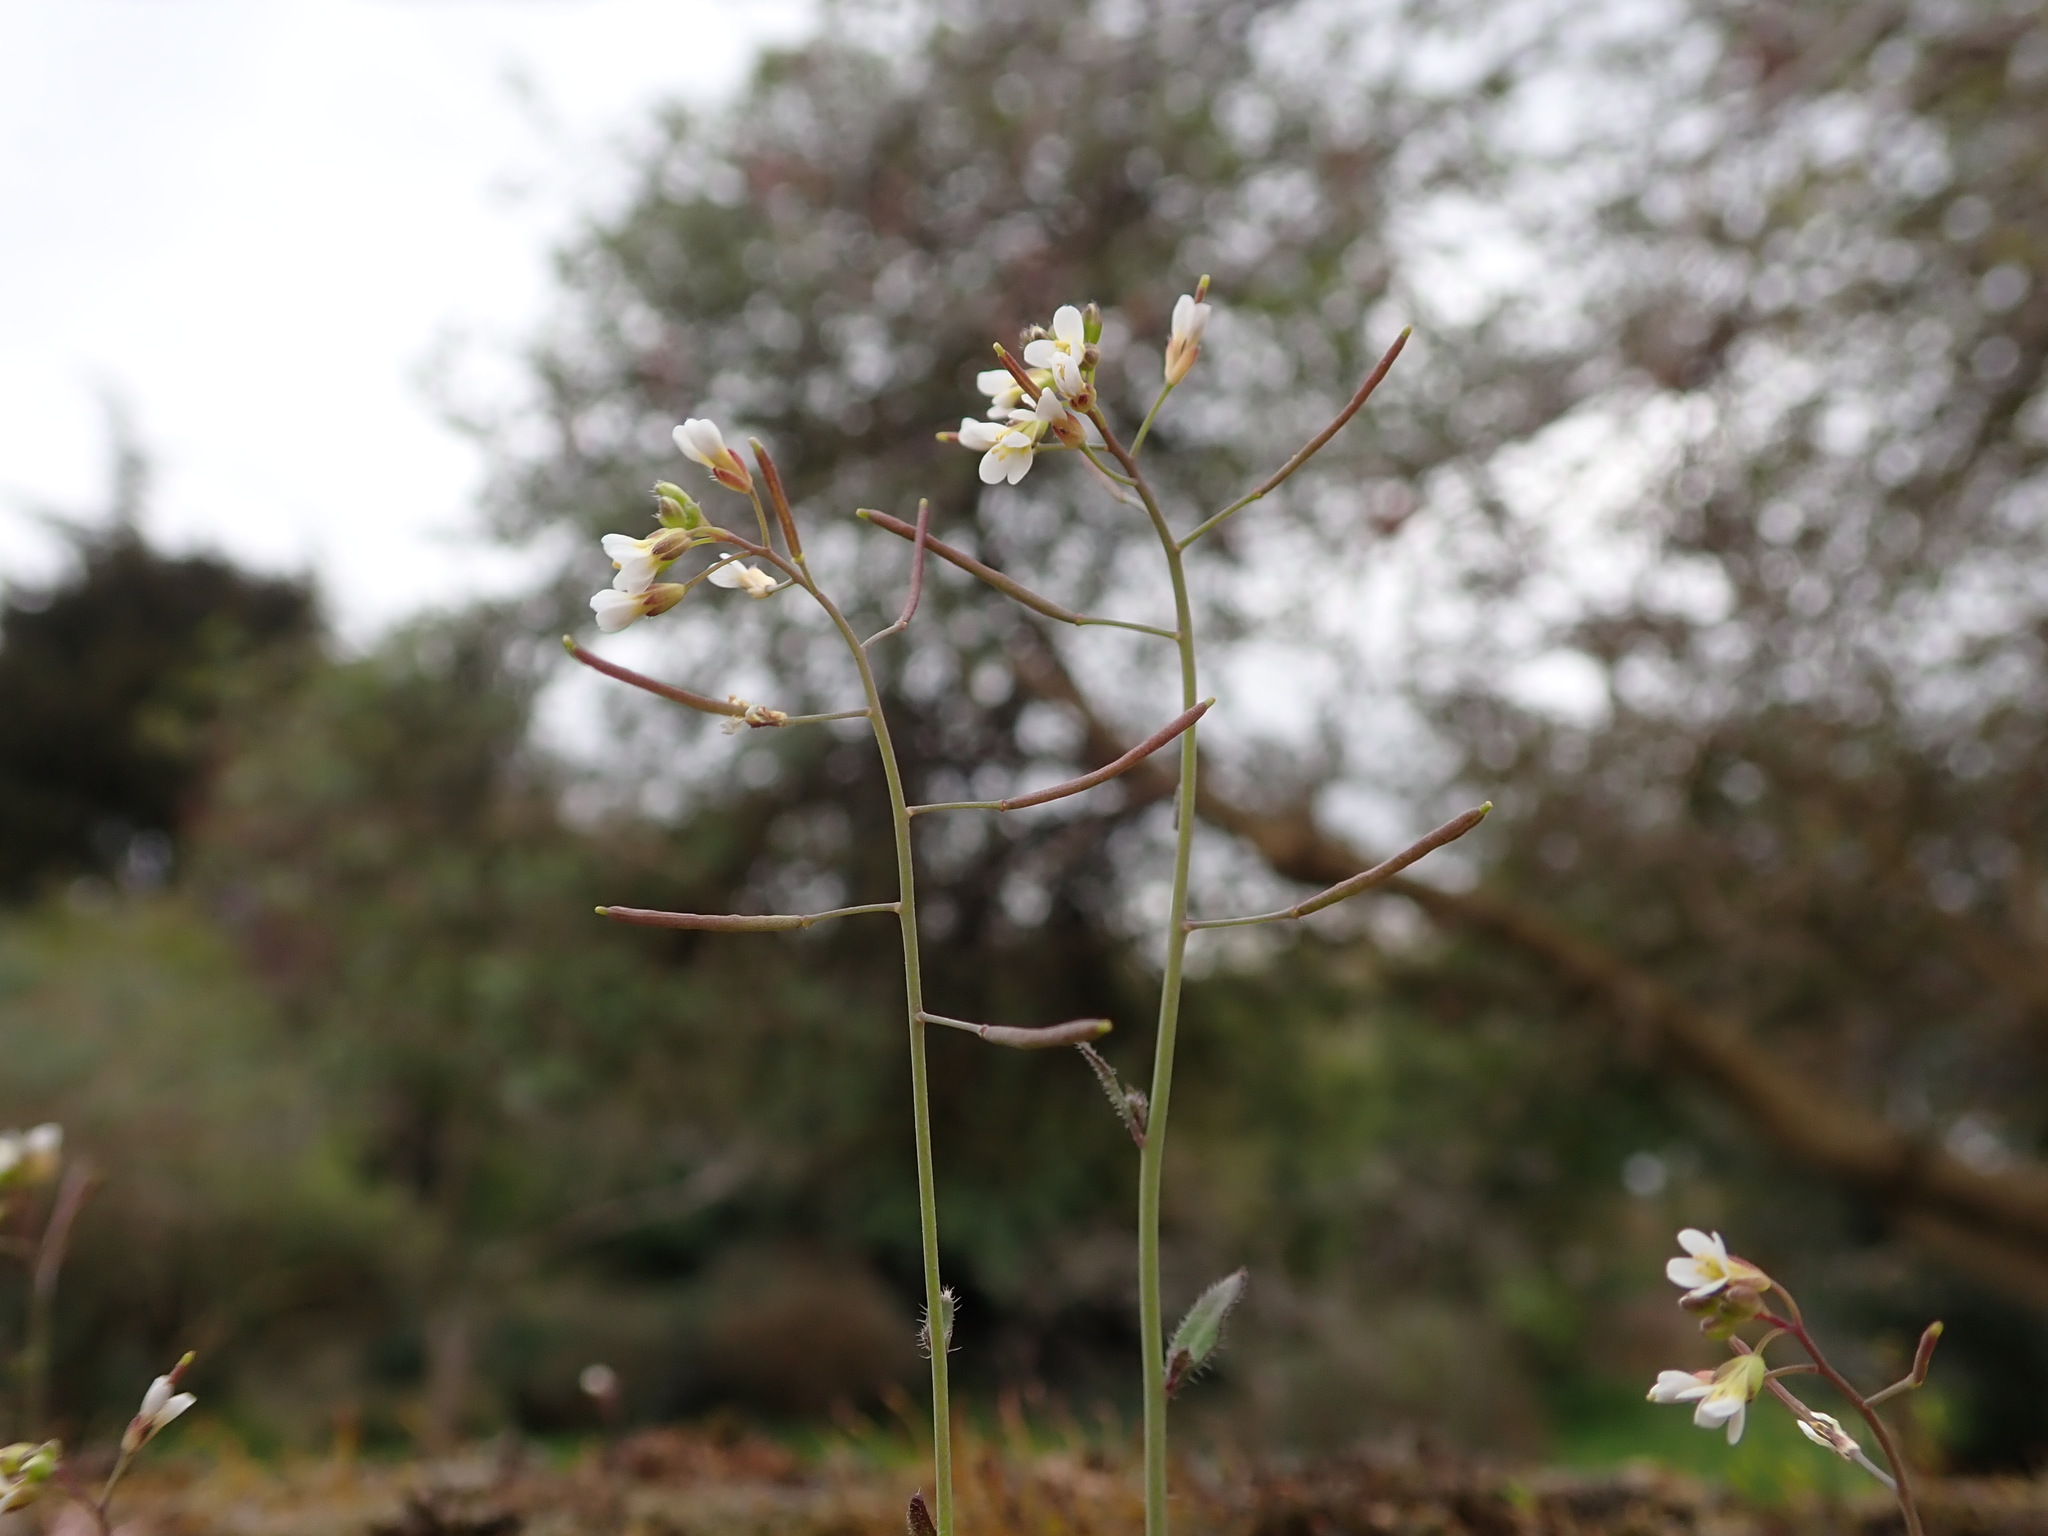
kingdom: Plantae
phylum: Tracheophyta
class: Magnoliopsida
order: Brassicales
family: Brassicaceae
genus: Arabidopsis
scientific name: Arabidopsis thaliana
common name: Thale cress
